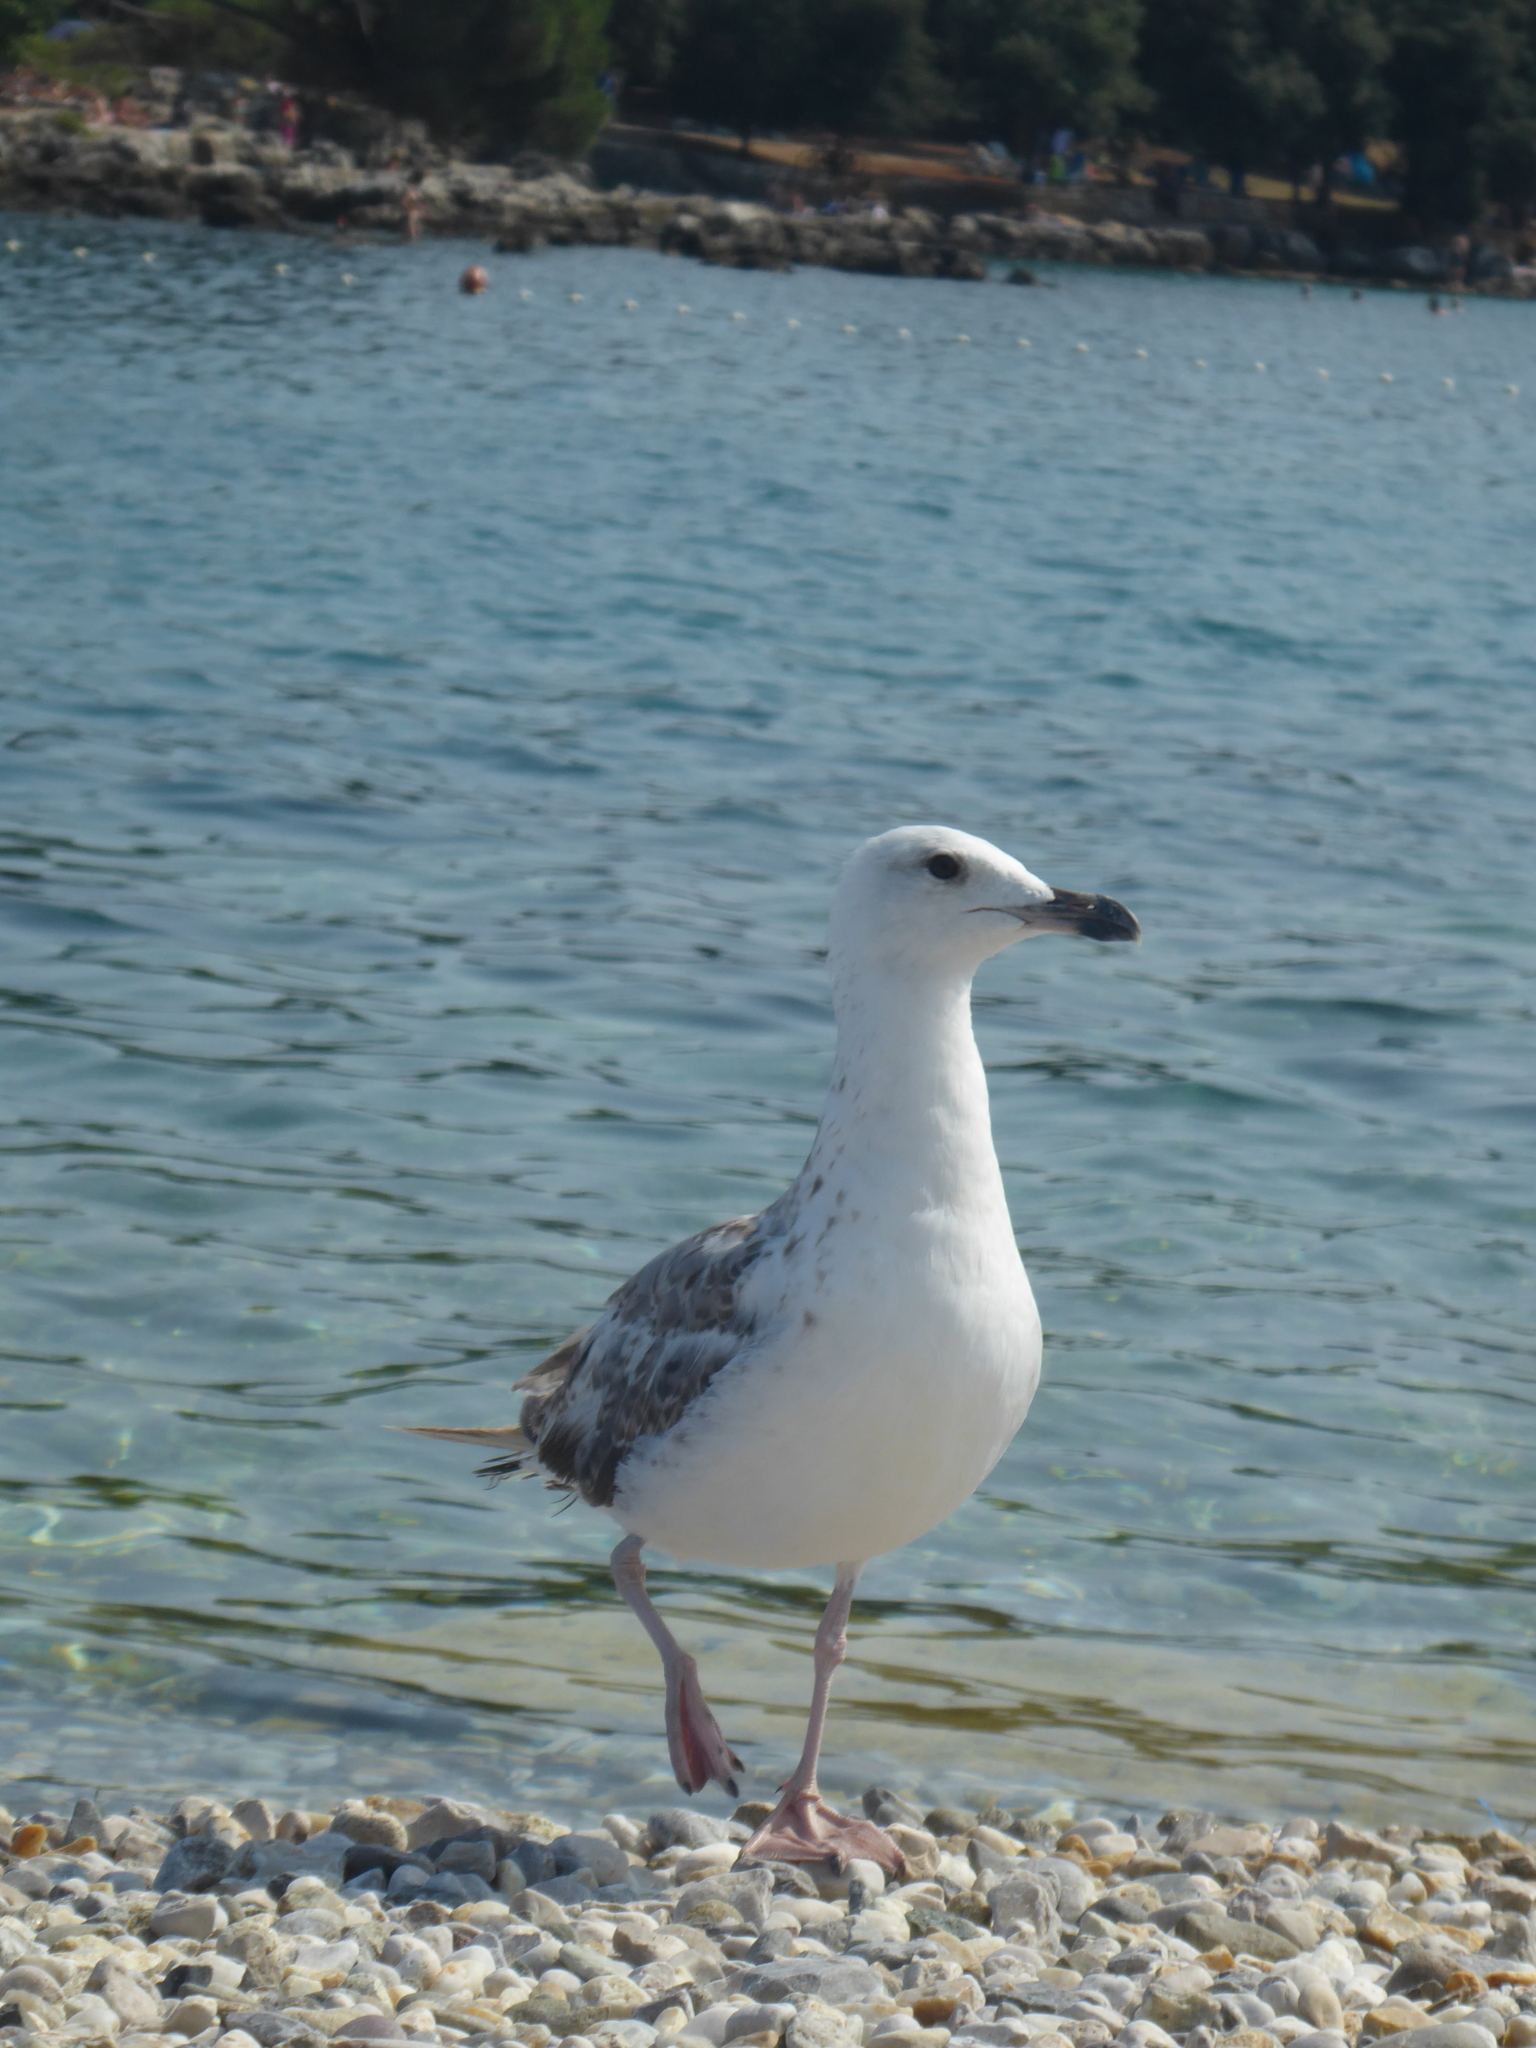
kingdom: Animalia
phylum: Chordata
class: Aves
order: Charadriiformes
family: Laridae
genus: Larus
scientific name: Larus michahellis
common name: Yellow-legged gull
